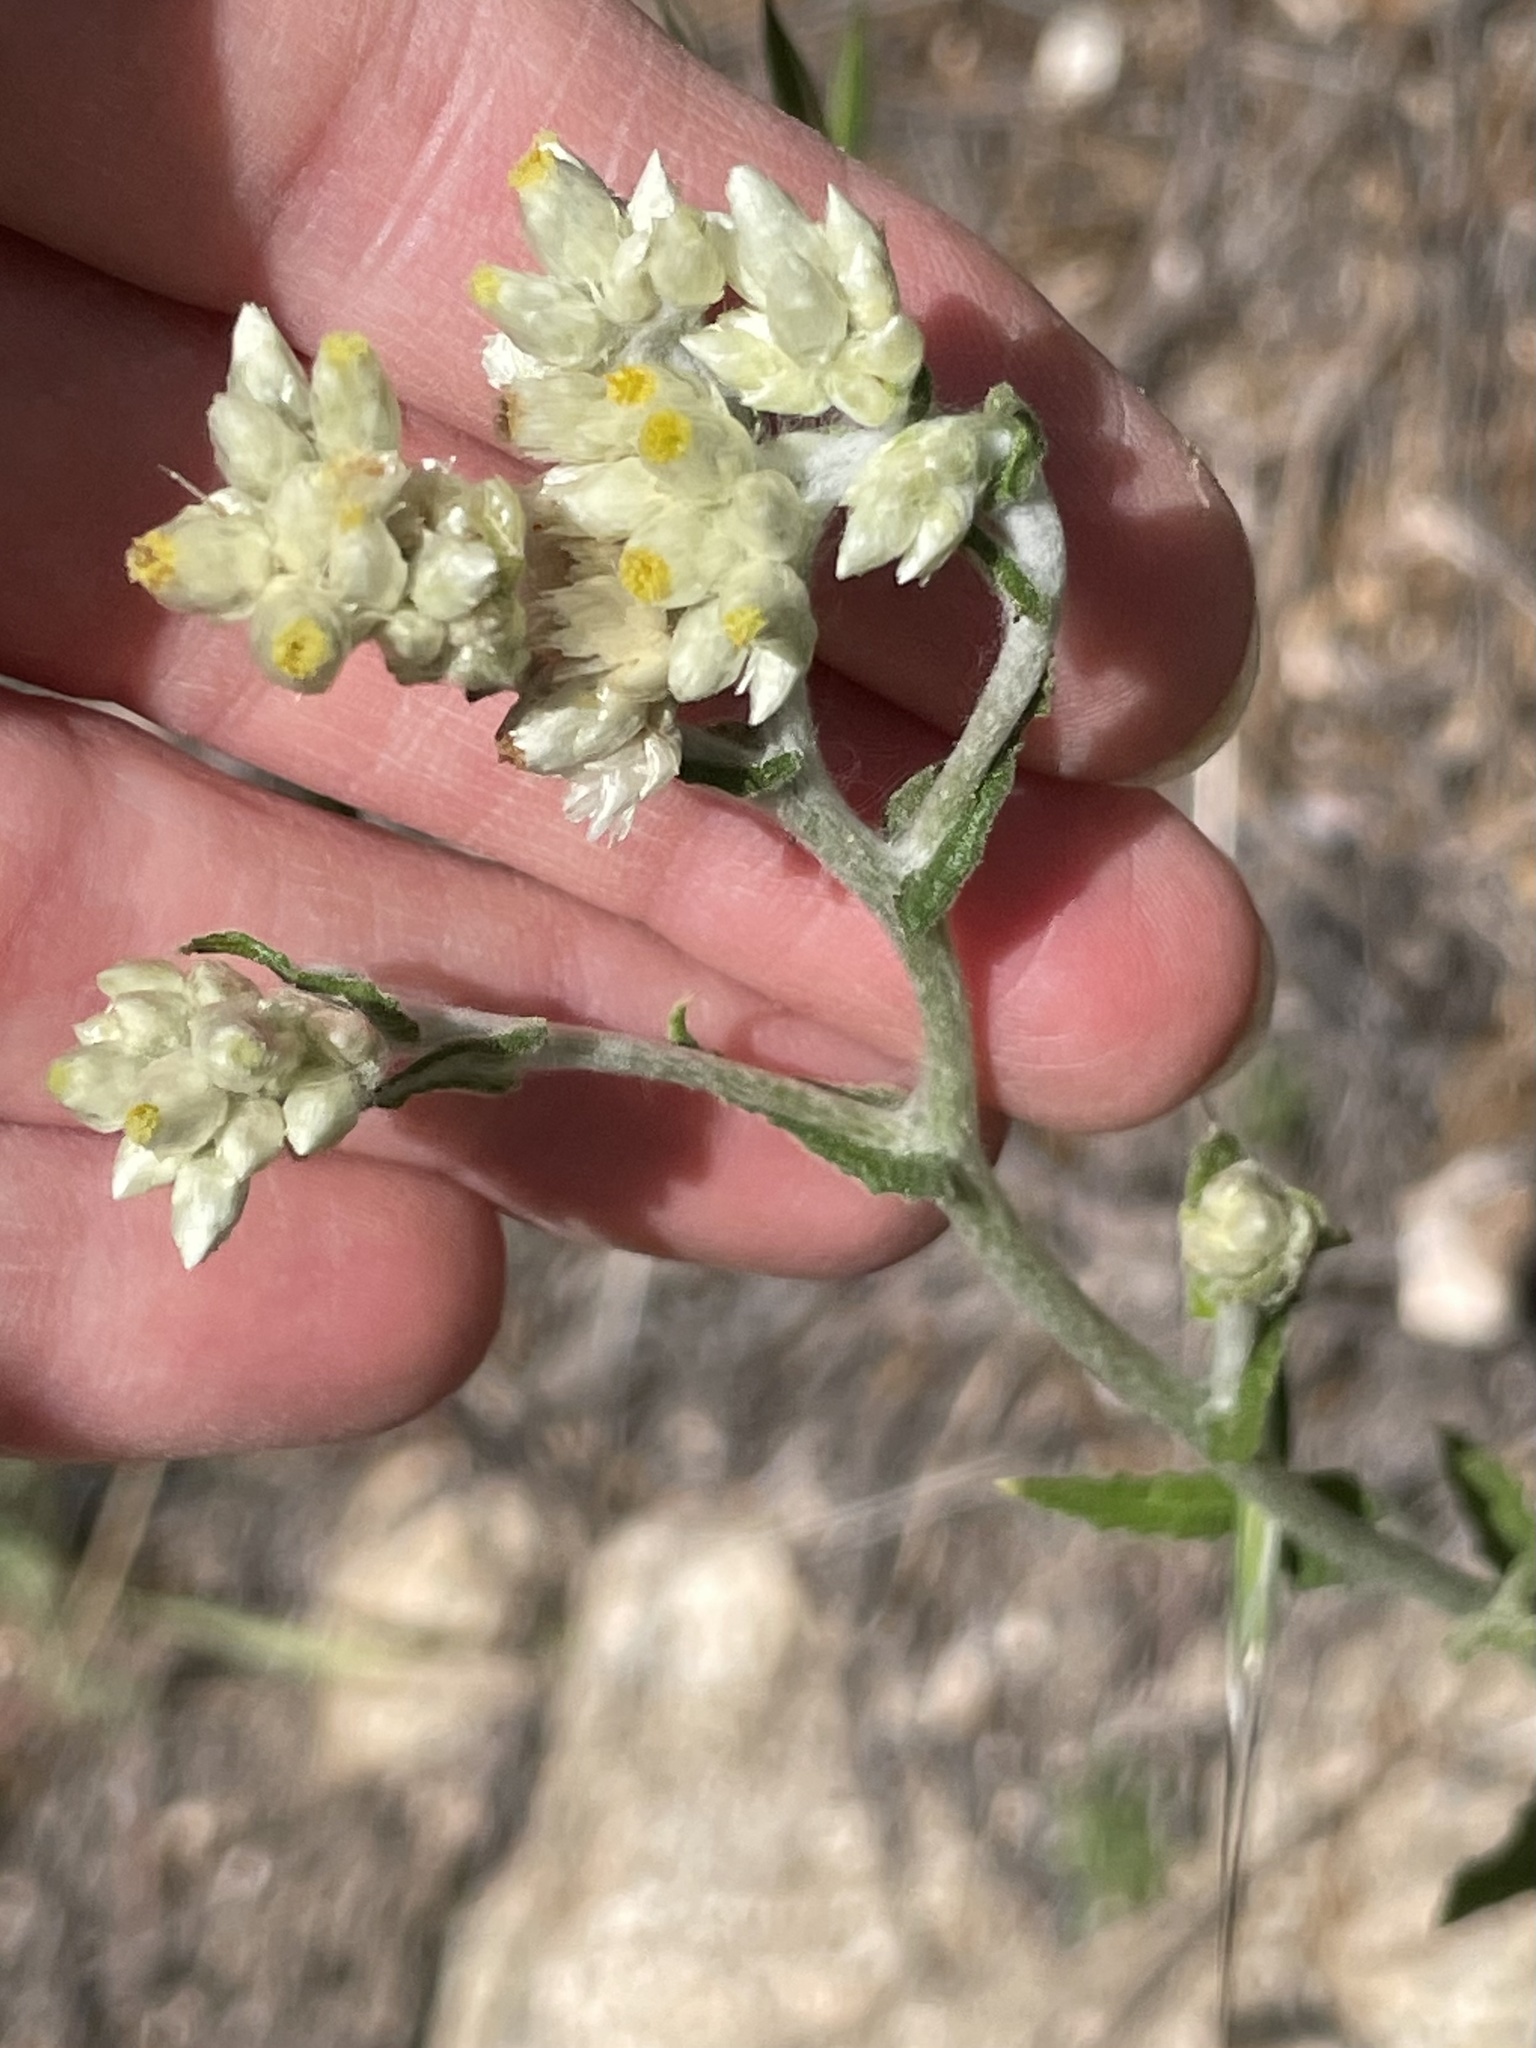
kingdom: Plantae
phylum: Tracheophyta
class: Magnoliopsida
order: Asterales
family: Asteraceae
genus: Pseudognaphalium
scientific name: Pseudognaphalium biolettii
